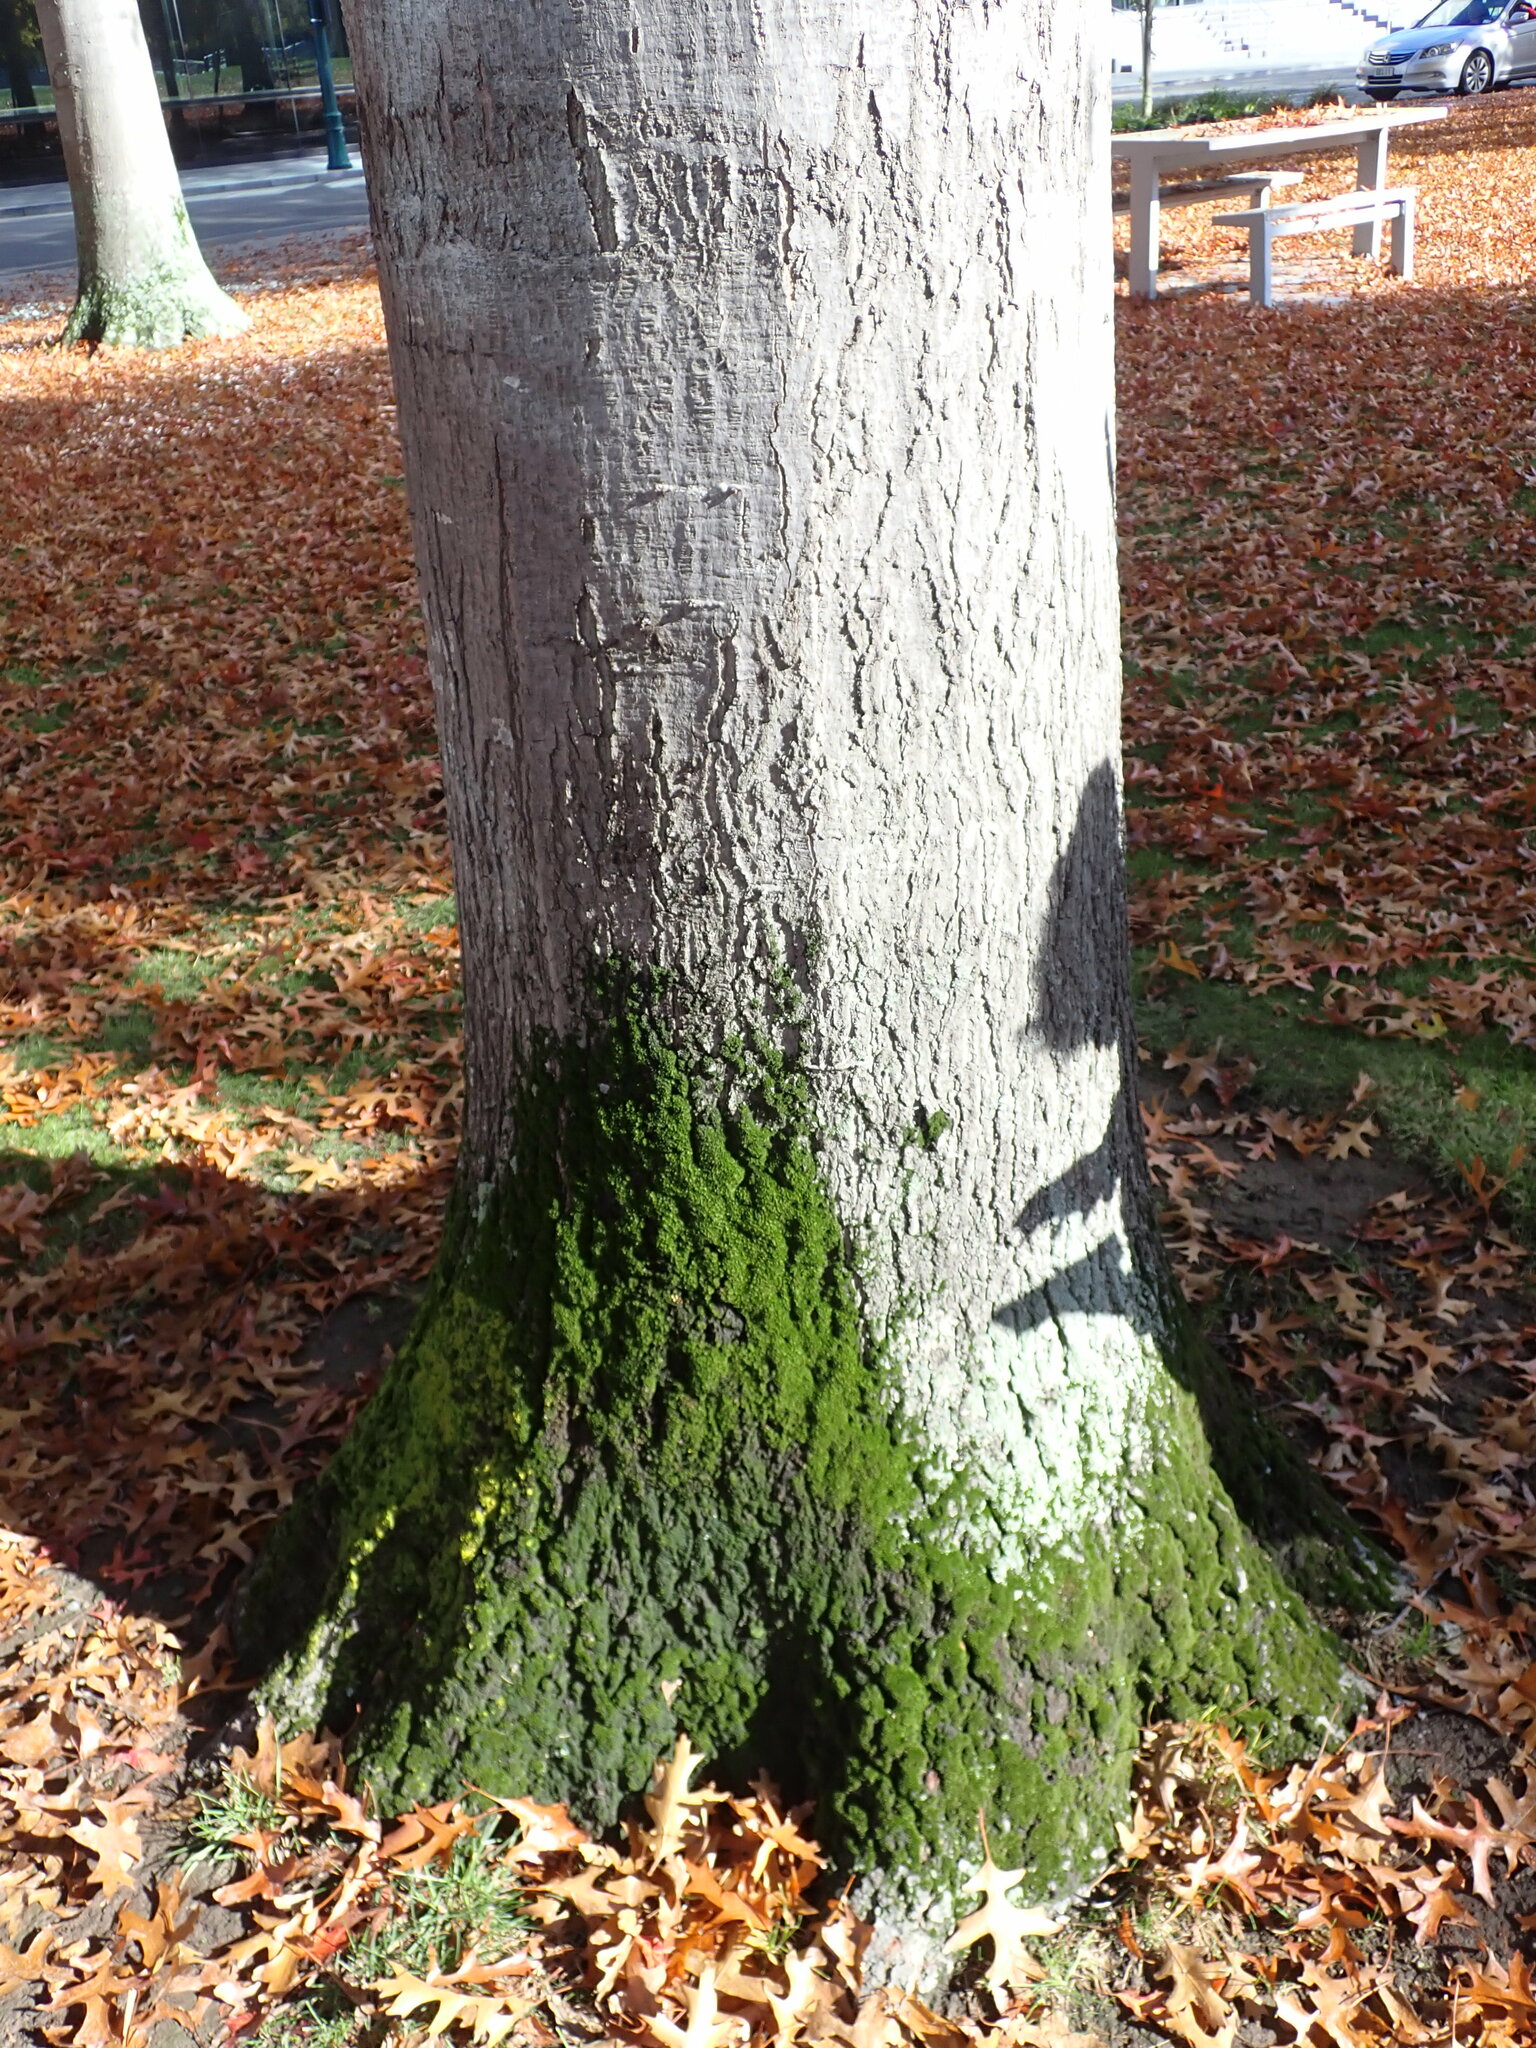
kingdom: Plantae
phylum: Bryophyta
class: Bryopsida
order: Pottiales
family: Pottiaceae
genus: Syntrichia
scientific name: Syntrichia papillosa
